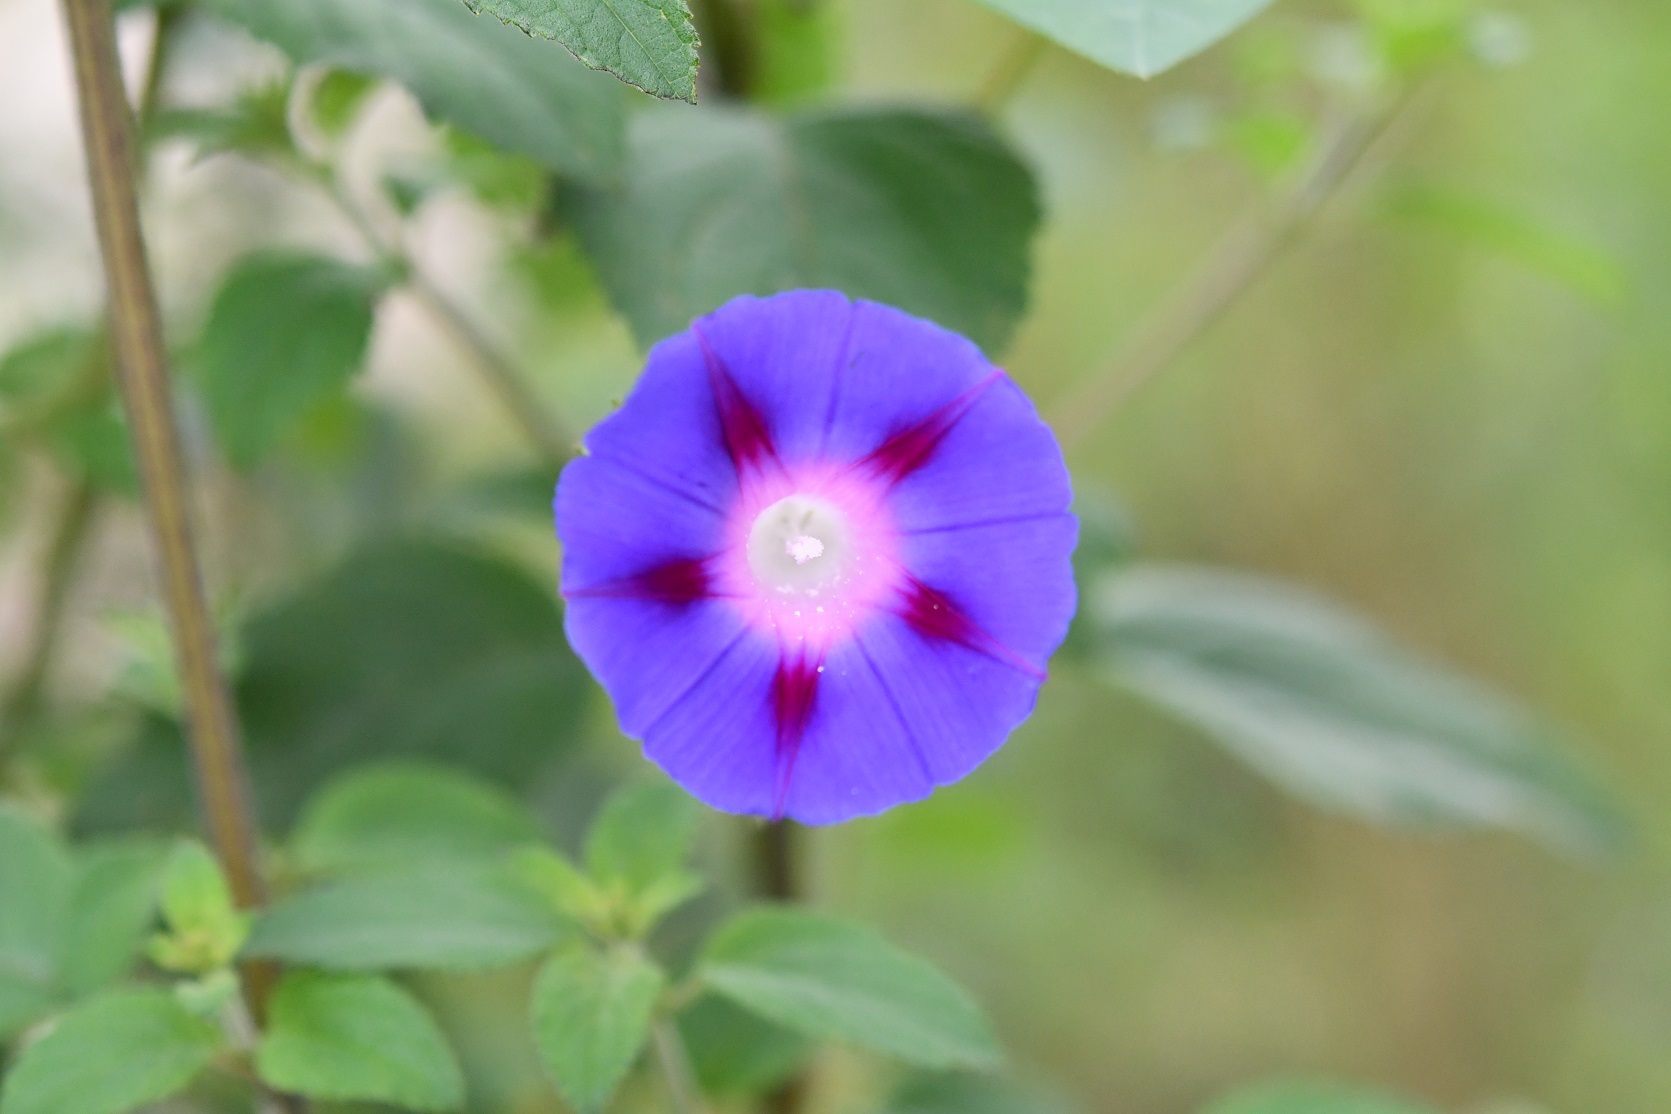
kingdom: Plantae
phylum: Tracheophyta
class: Magnoliopsida
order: Solanales
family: Convolvulaceae
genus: Ipomoea
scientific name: Ipomoea purpurea
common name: Common morning-glory
